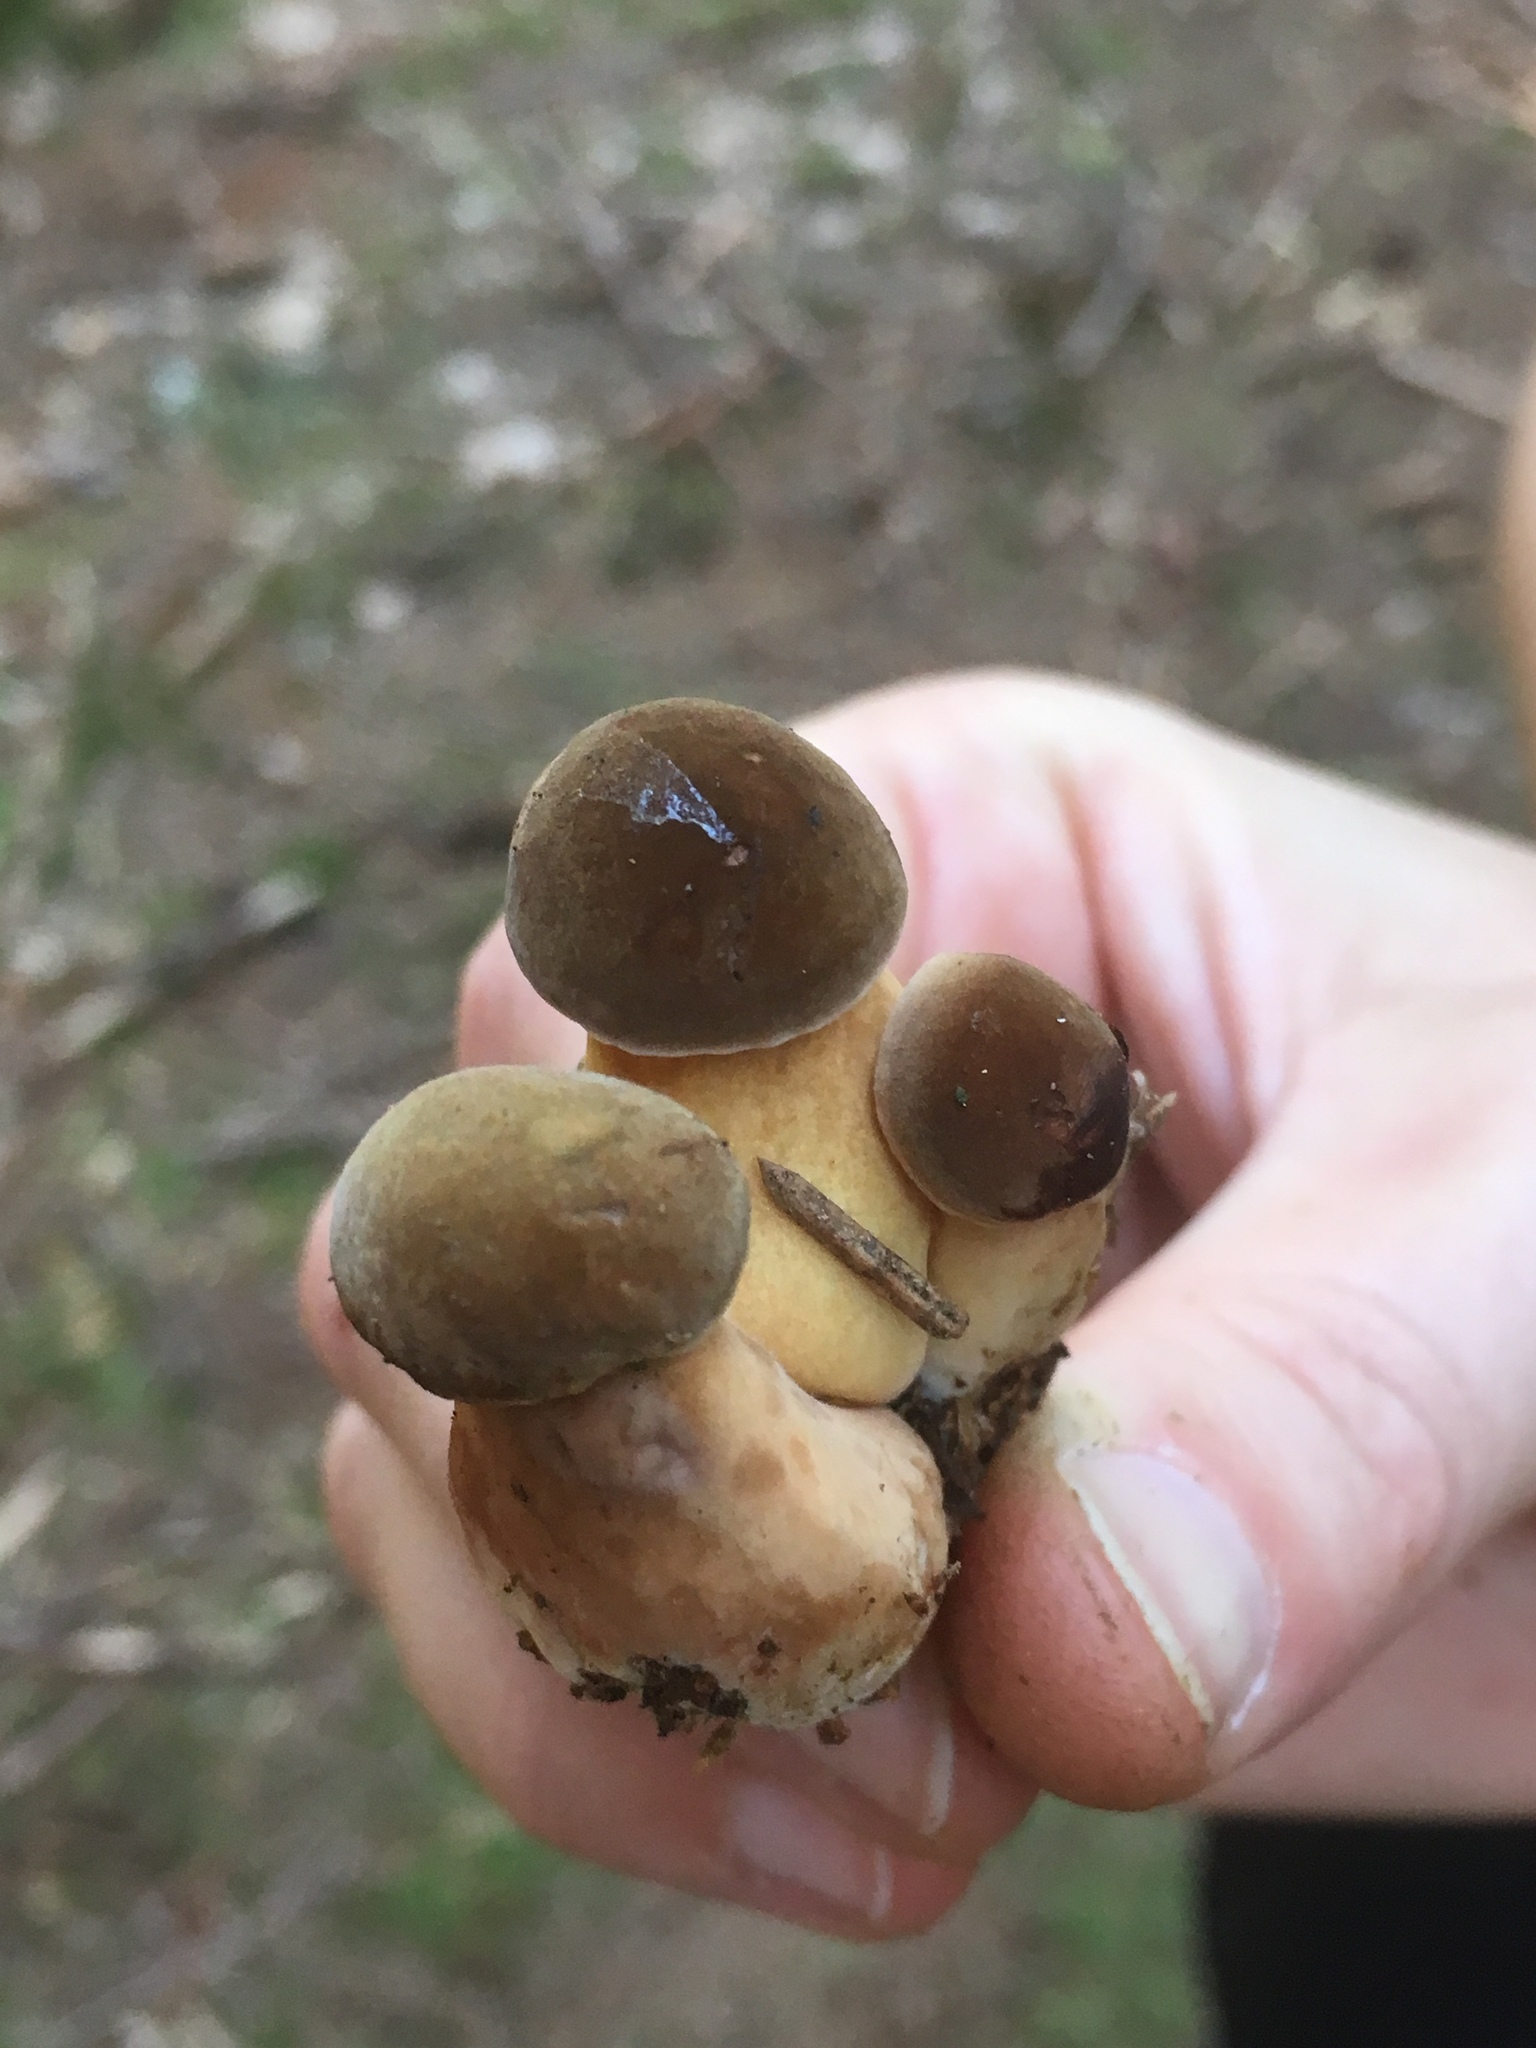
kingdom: Fungi
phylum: Basidiomycota
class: Agaricomycetes
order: Boletales
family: Boletaceae
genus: Imleria
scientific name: Imleria badia
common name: Bay bolete
